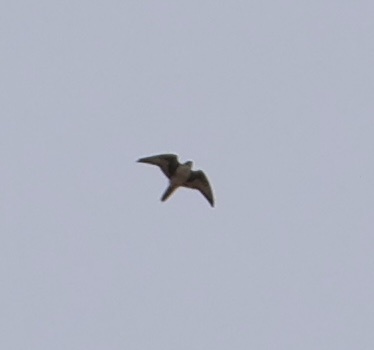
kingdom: Animalia
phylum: Chordata
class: Aves
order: Falconiformes
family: Falconidae
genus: Falco
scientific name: Falco mexicanus
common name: Prairie falcon
